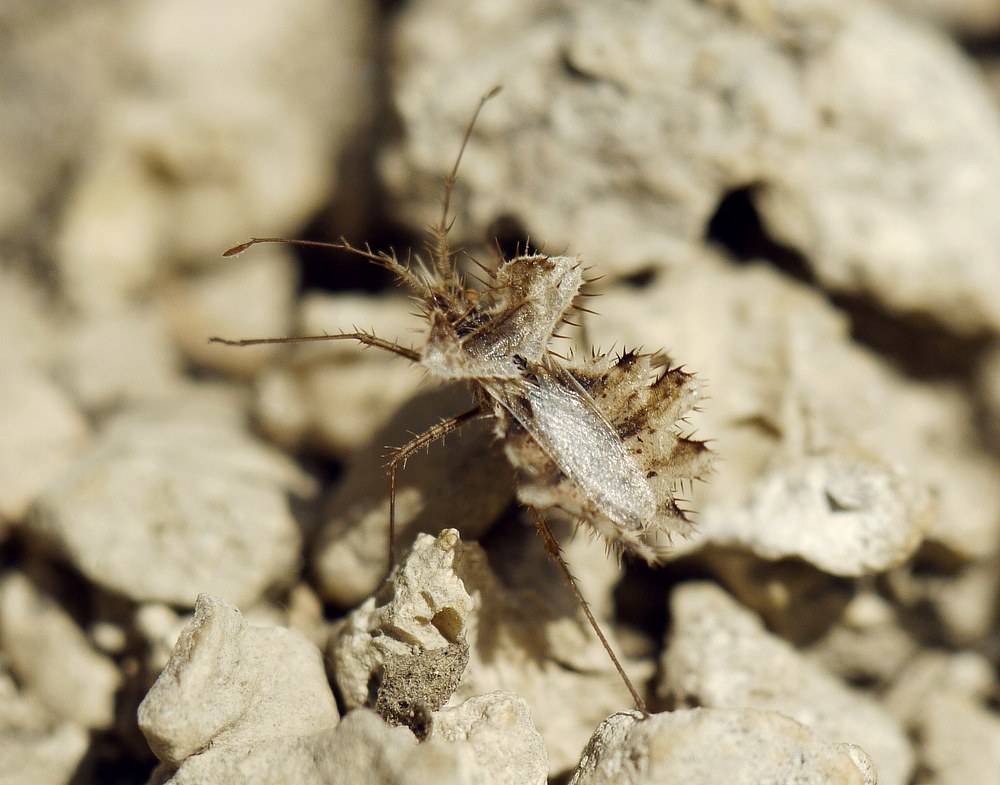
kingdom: Animalia
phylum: Arthropoda
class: Insecta
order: Hemiptera
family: Coreidae
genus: Phyllomorpha
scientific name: Phyllomorpha laciniata
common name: Golden egg bug
